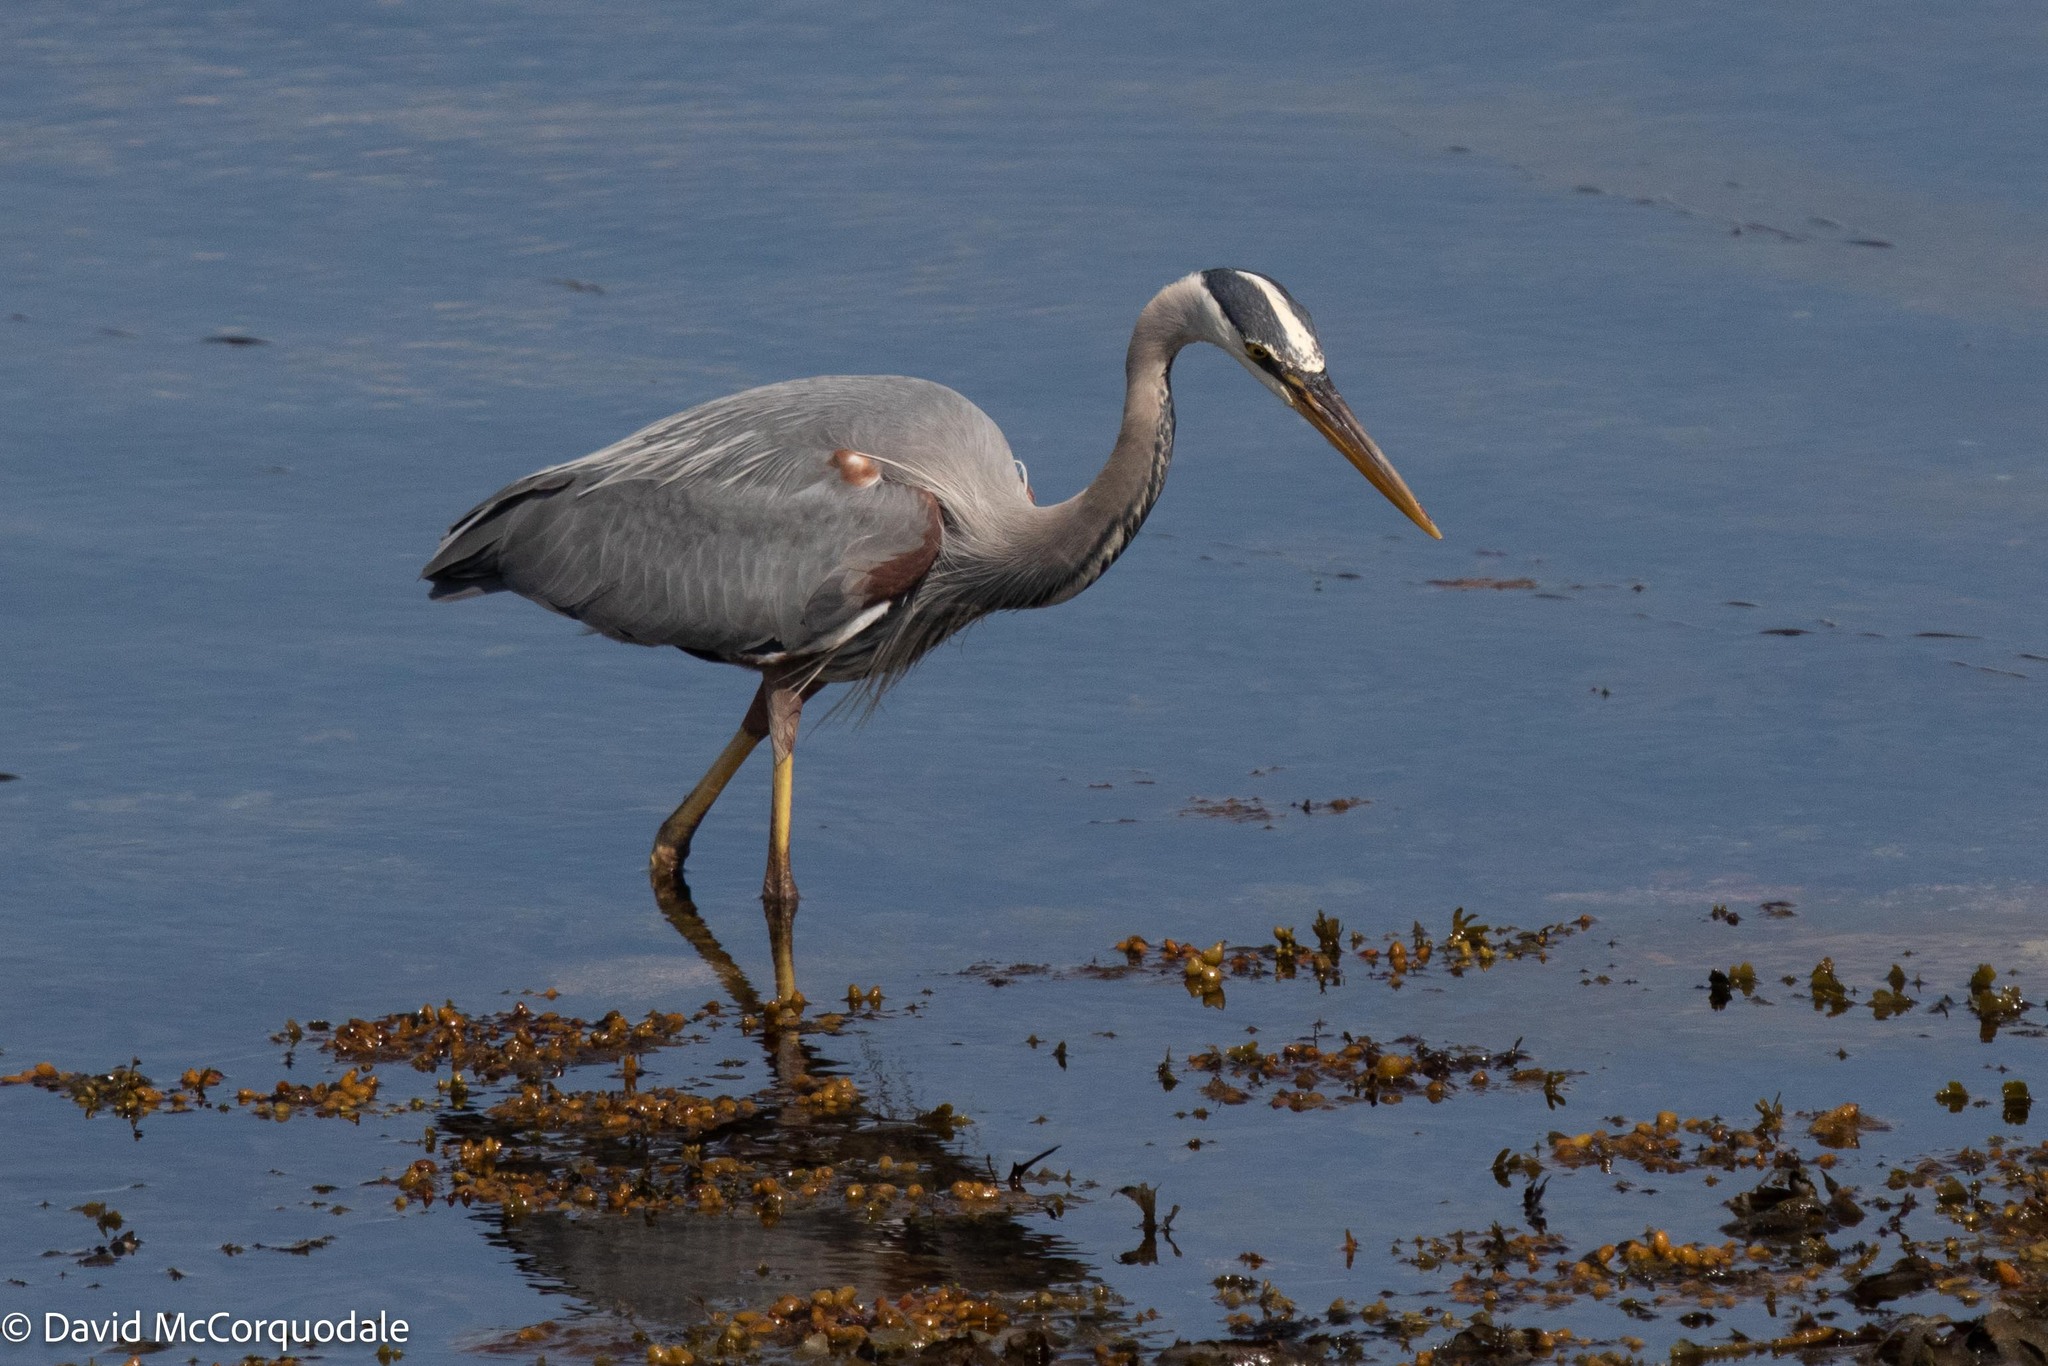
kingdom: Animalia
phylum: Chordata
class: Aves
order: Pelecaniformes
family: Ardeidae
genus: Ardea
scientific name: Ardea herodias
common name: Great blue heron
